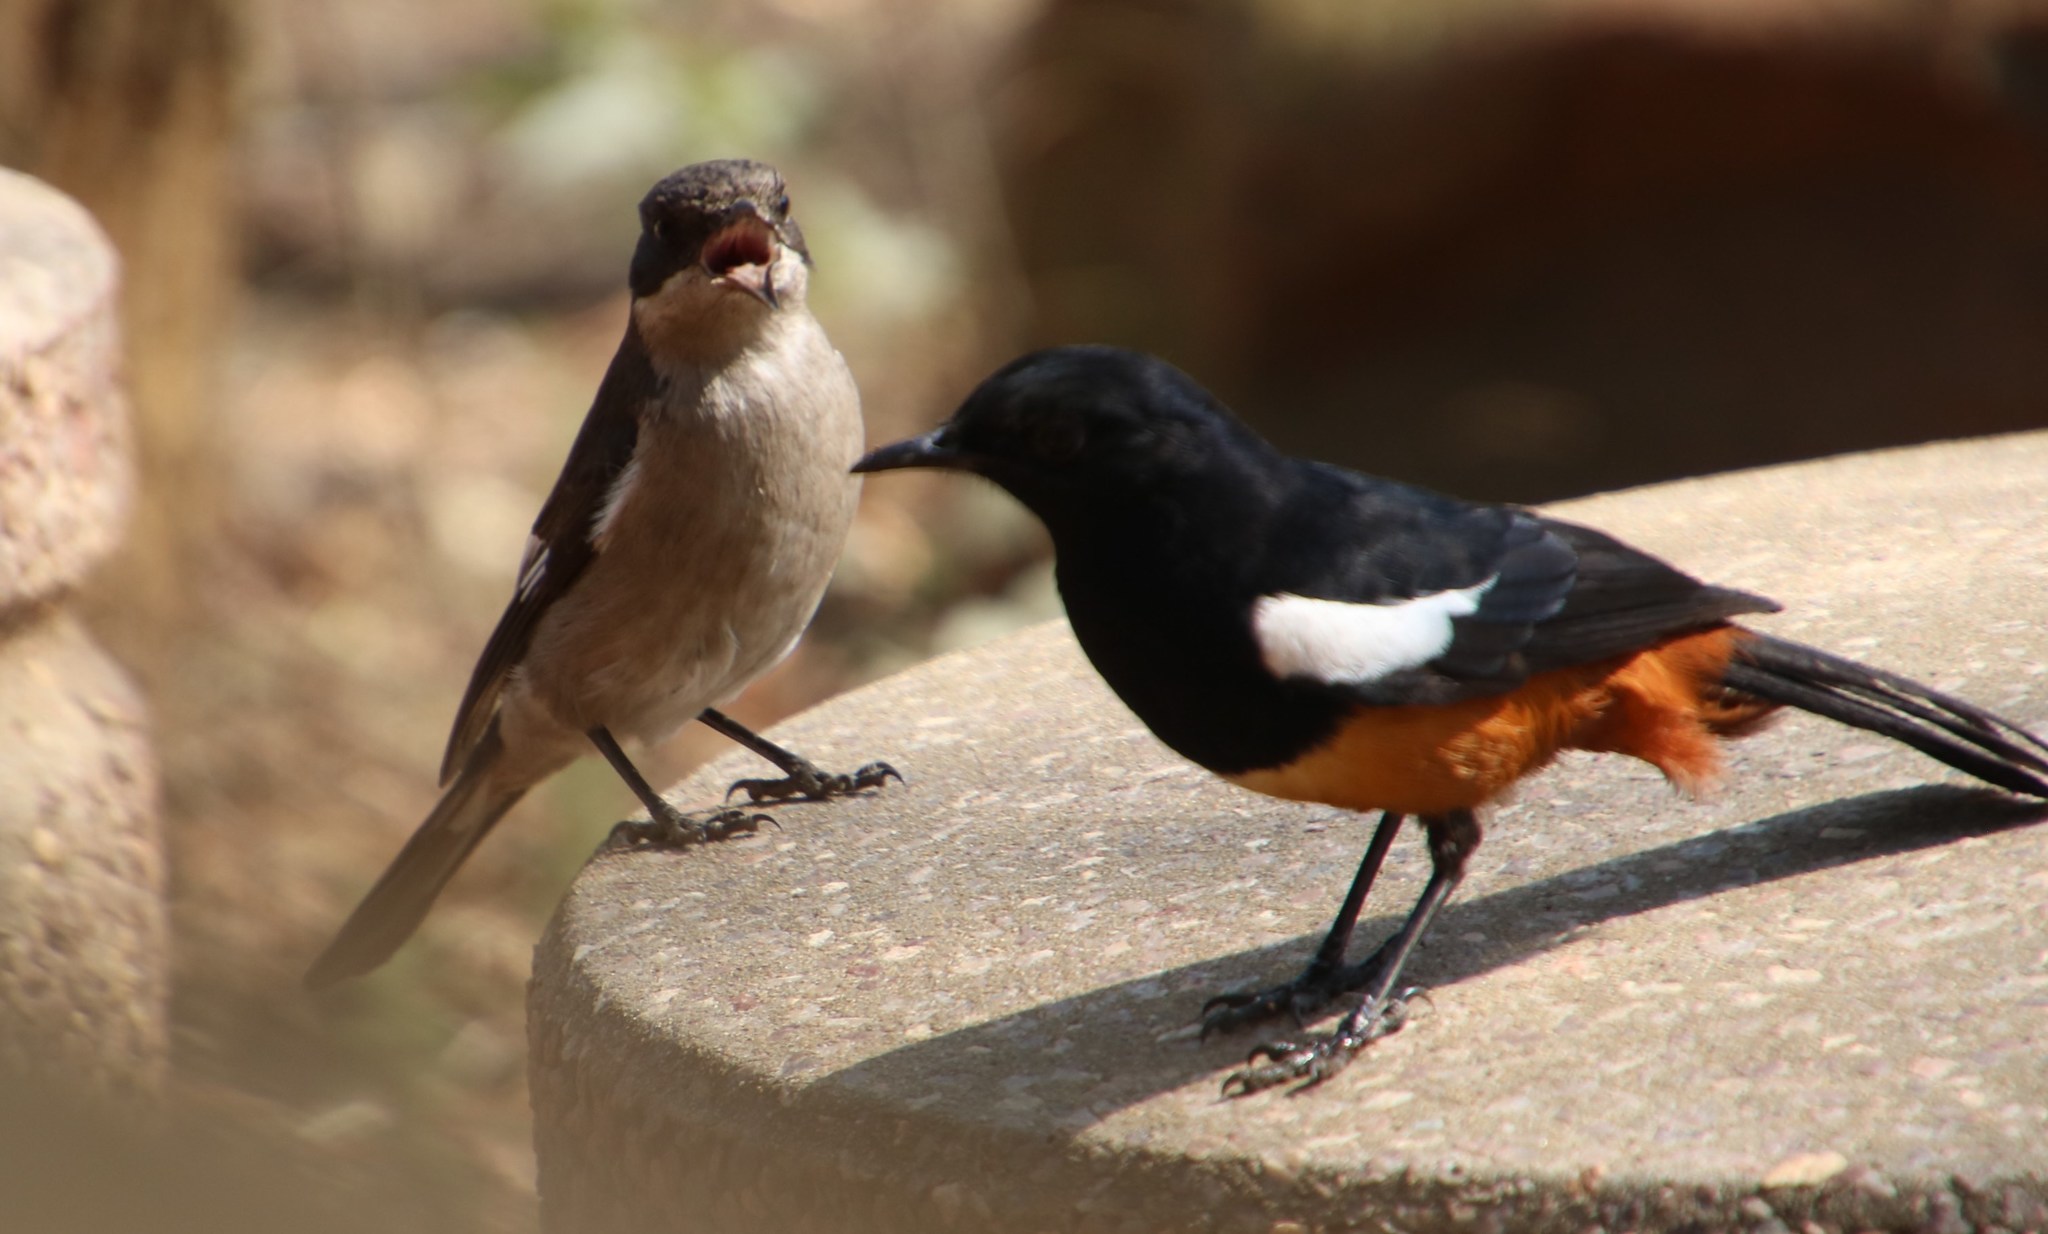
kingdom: Animalia
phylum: Chordata
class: Aves
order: Passeriformes
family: Muscicapidae
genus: Sigelus
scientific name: Sigelus silens
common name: Fiscal flycatcher
